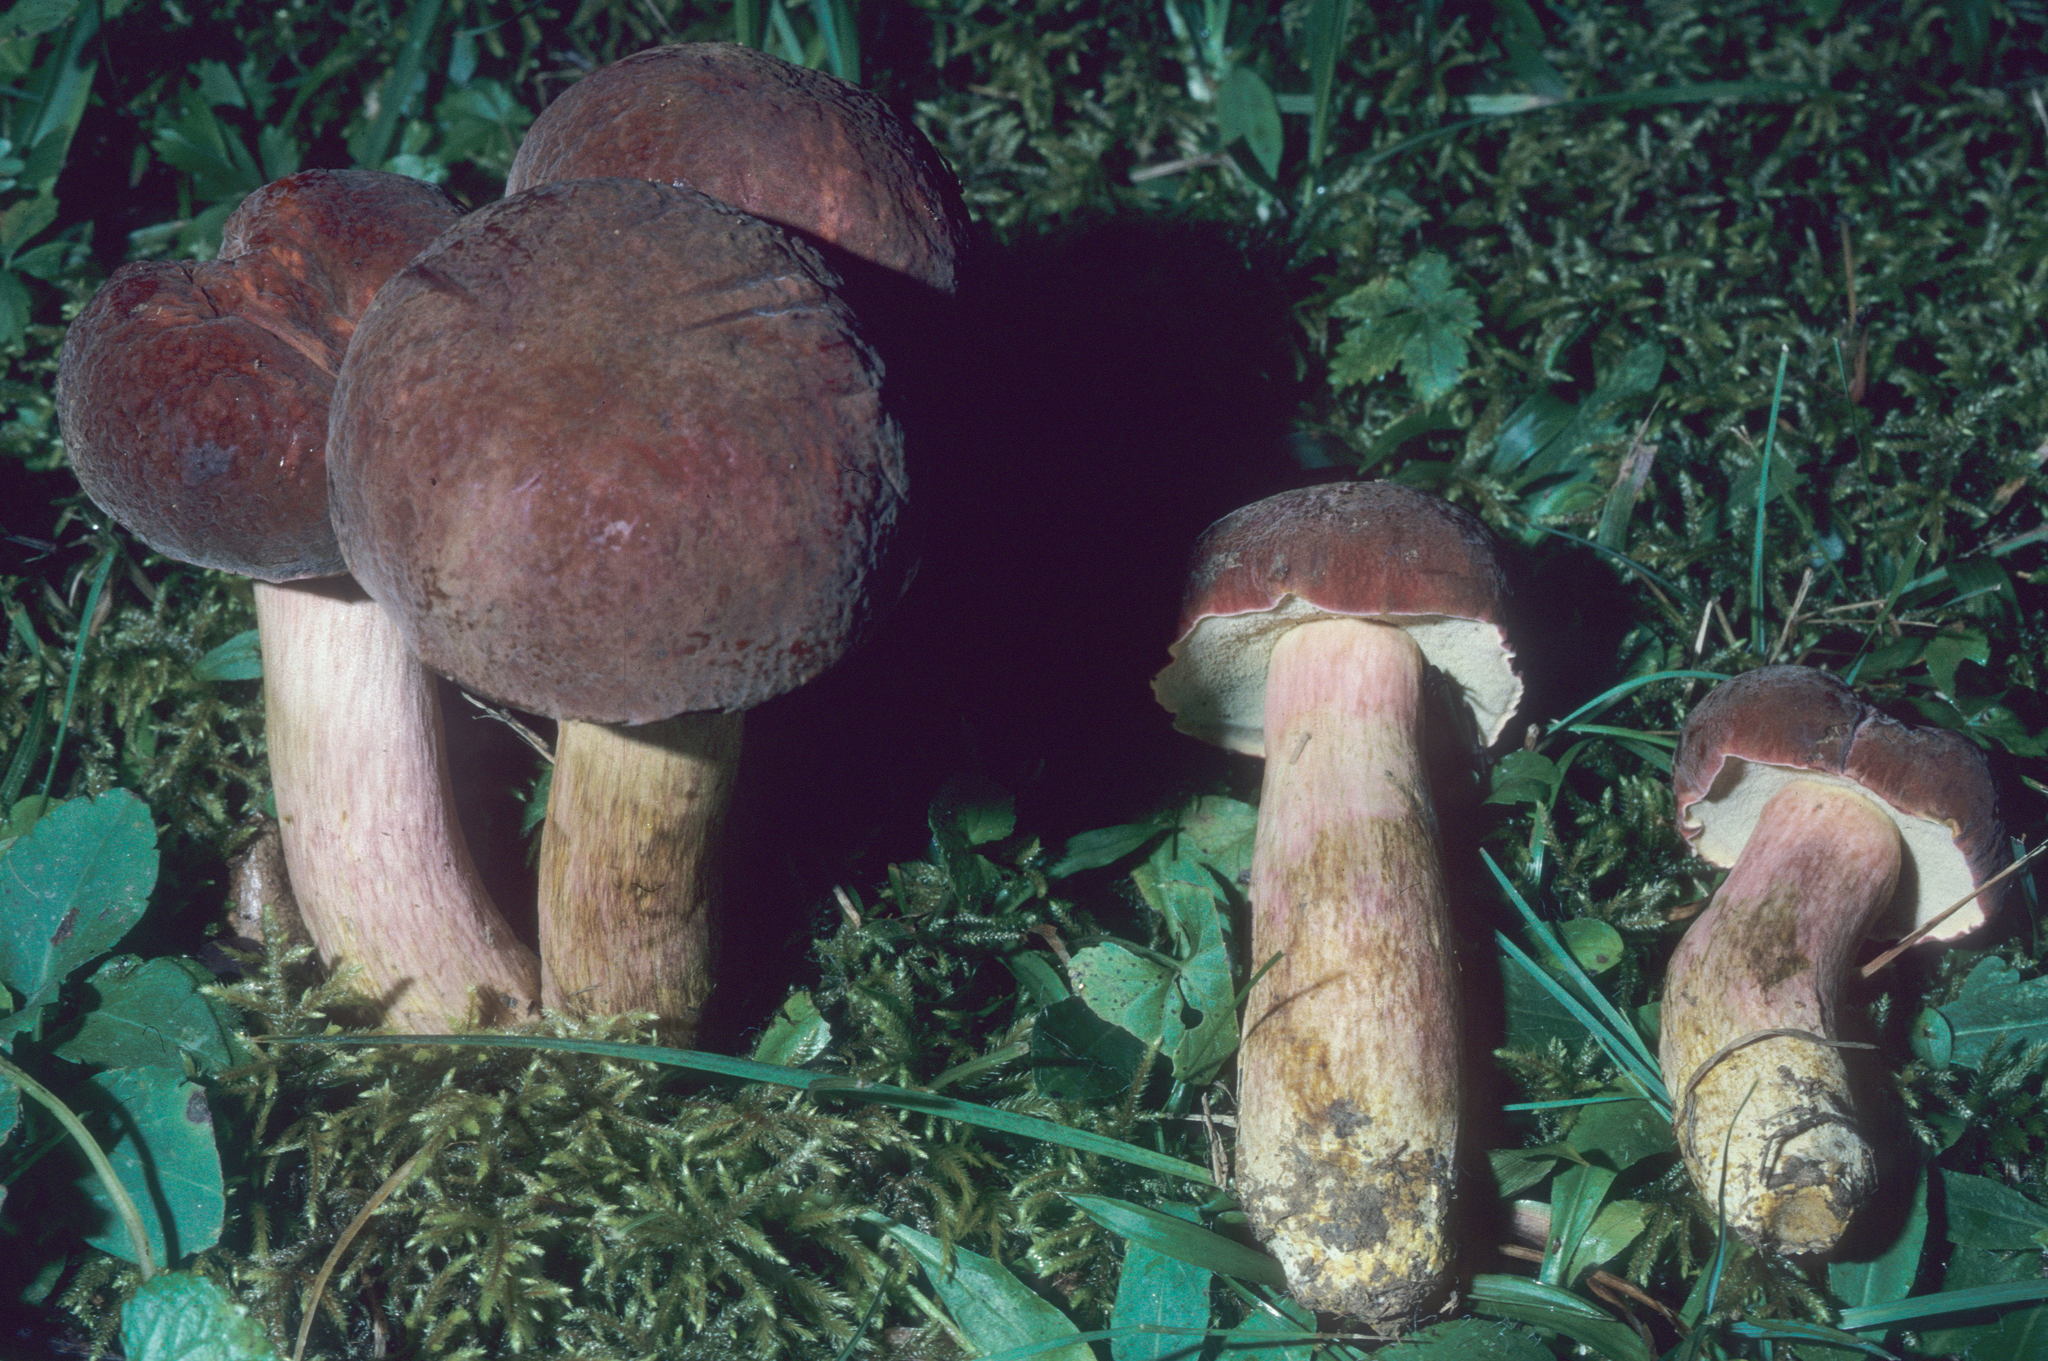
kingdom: Fungi
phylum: Basidiomycota
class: Agaricomycetes
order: Boletales
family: Boletaceae
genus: Boletus
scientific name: Boletus patrioticus
